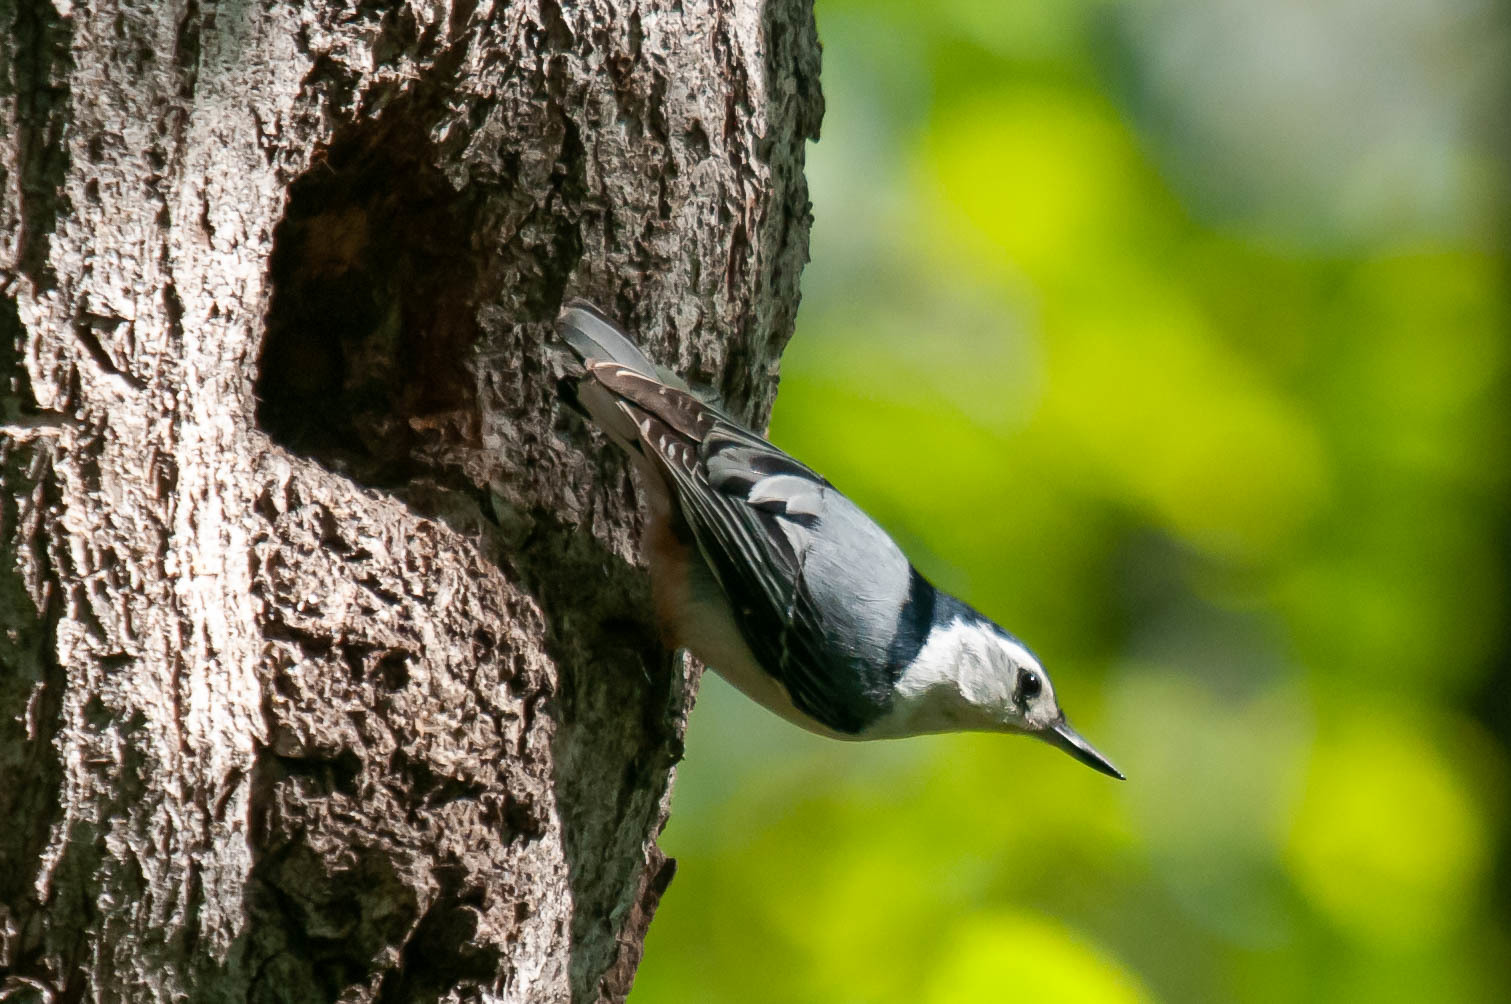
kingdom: Animalia
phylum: Chordata
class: Aves
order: Passeriformes
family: Sittidae
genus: Sitta
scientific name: Sitta carolinensis
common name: White-breasted nuthatch
